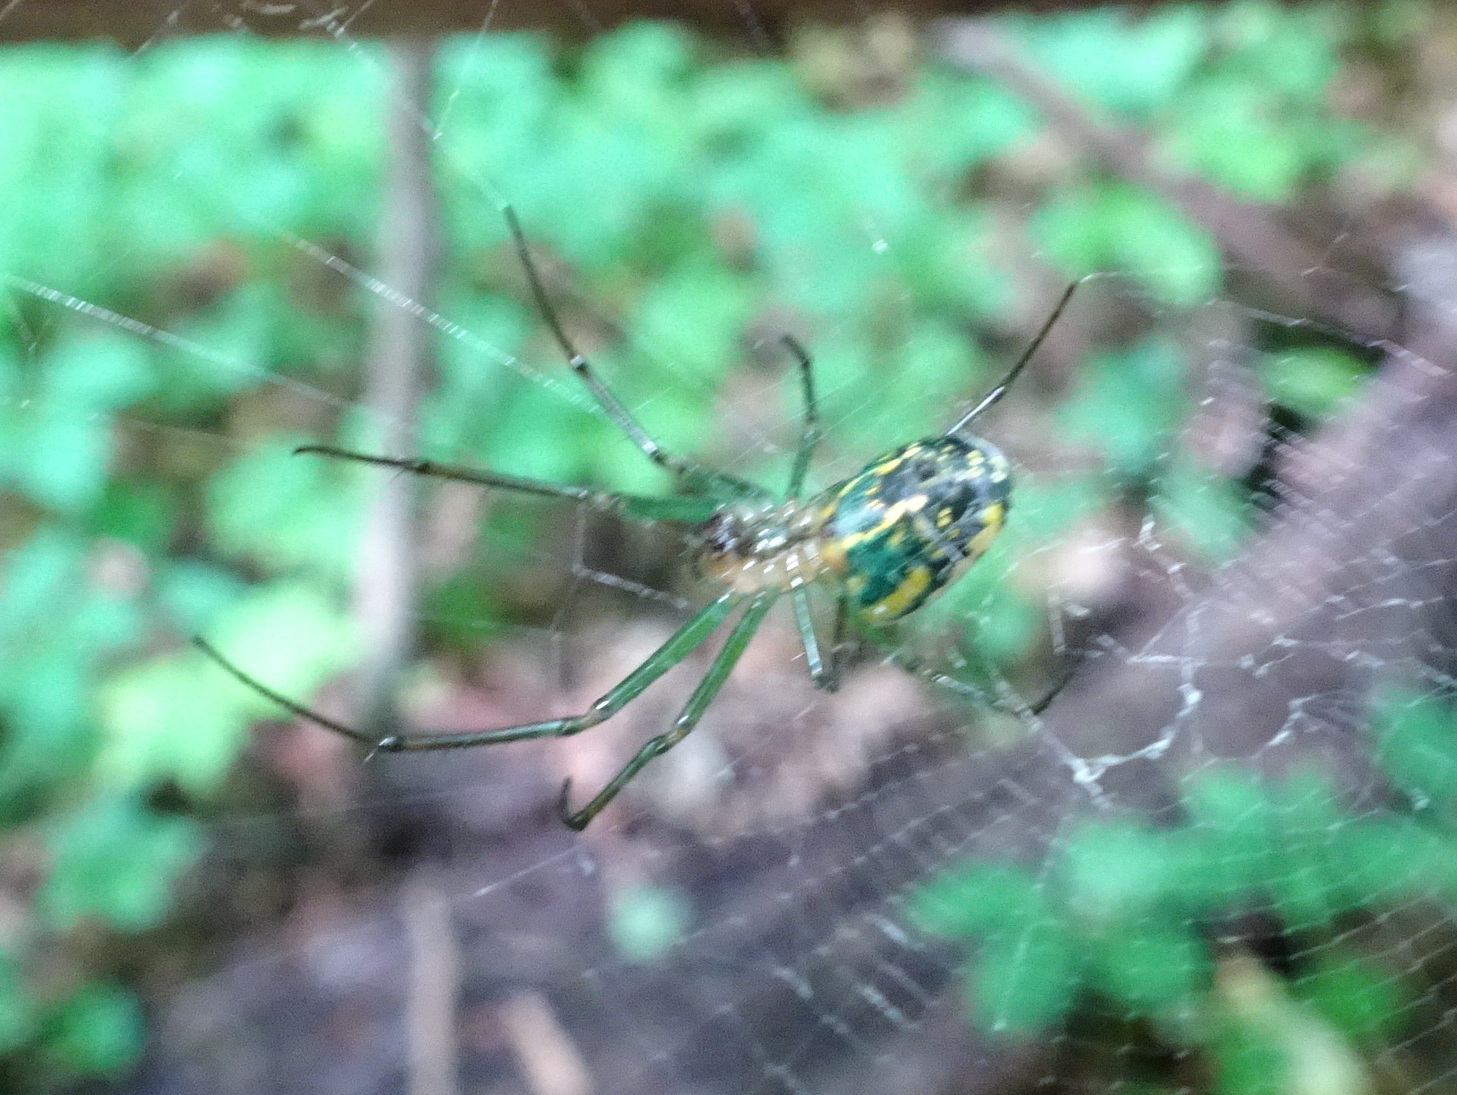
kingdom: Animalia
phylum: Arthropoda
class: Arachnida
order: Araneae
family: Tetragnathidae
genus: Leucauge
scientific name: Leucauge venusta
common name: Longjawed orb weavers
